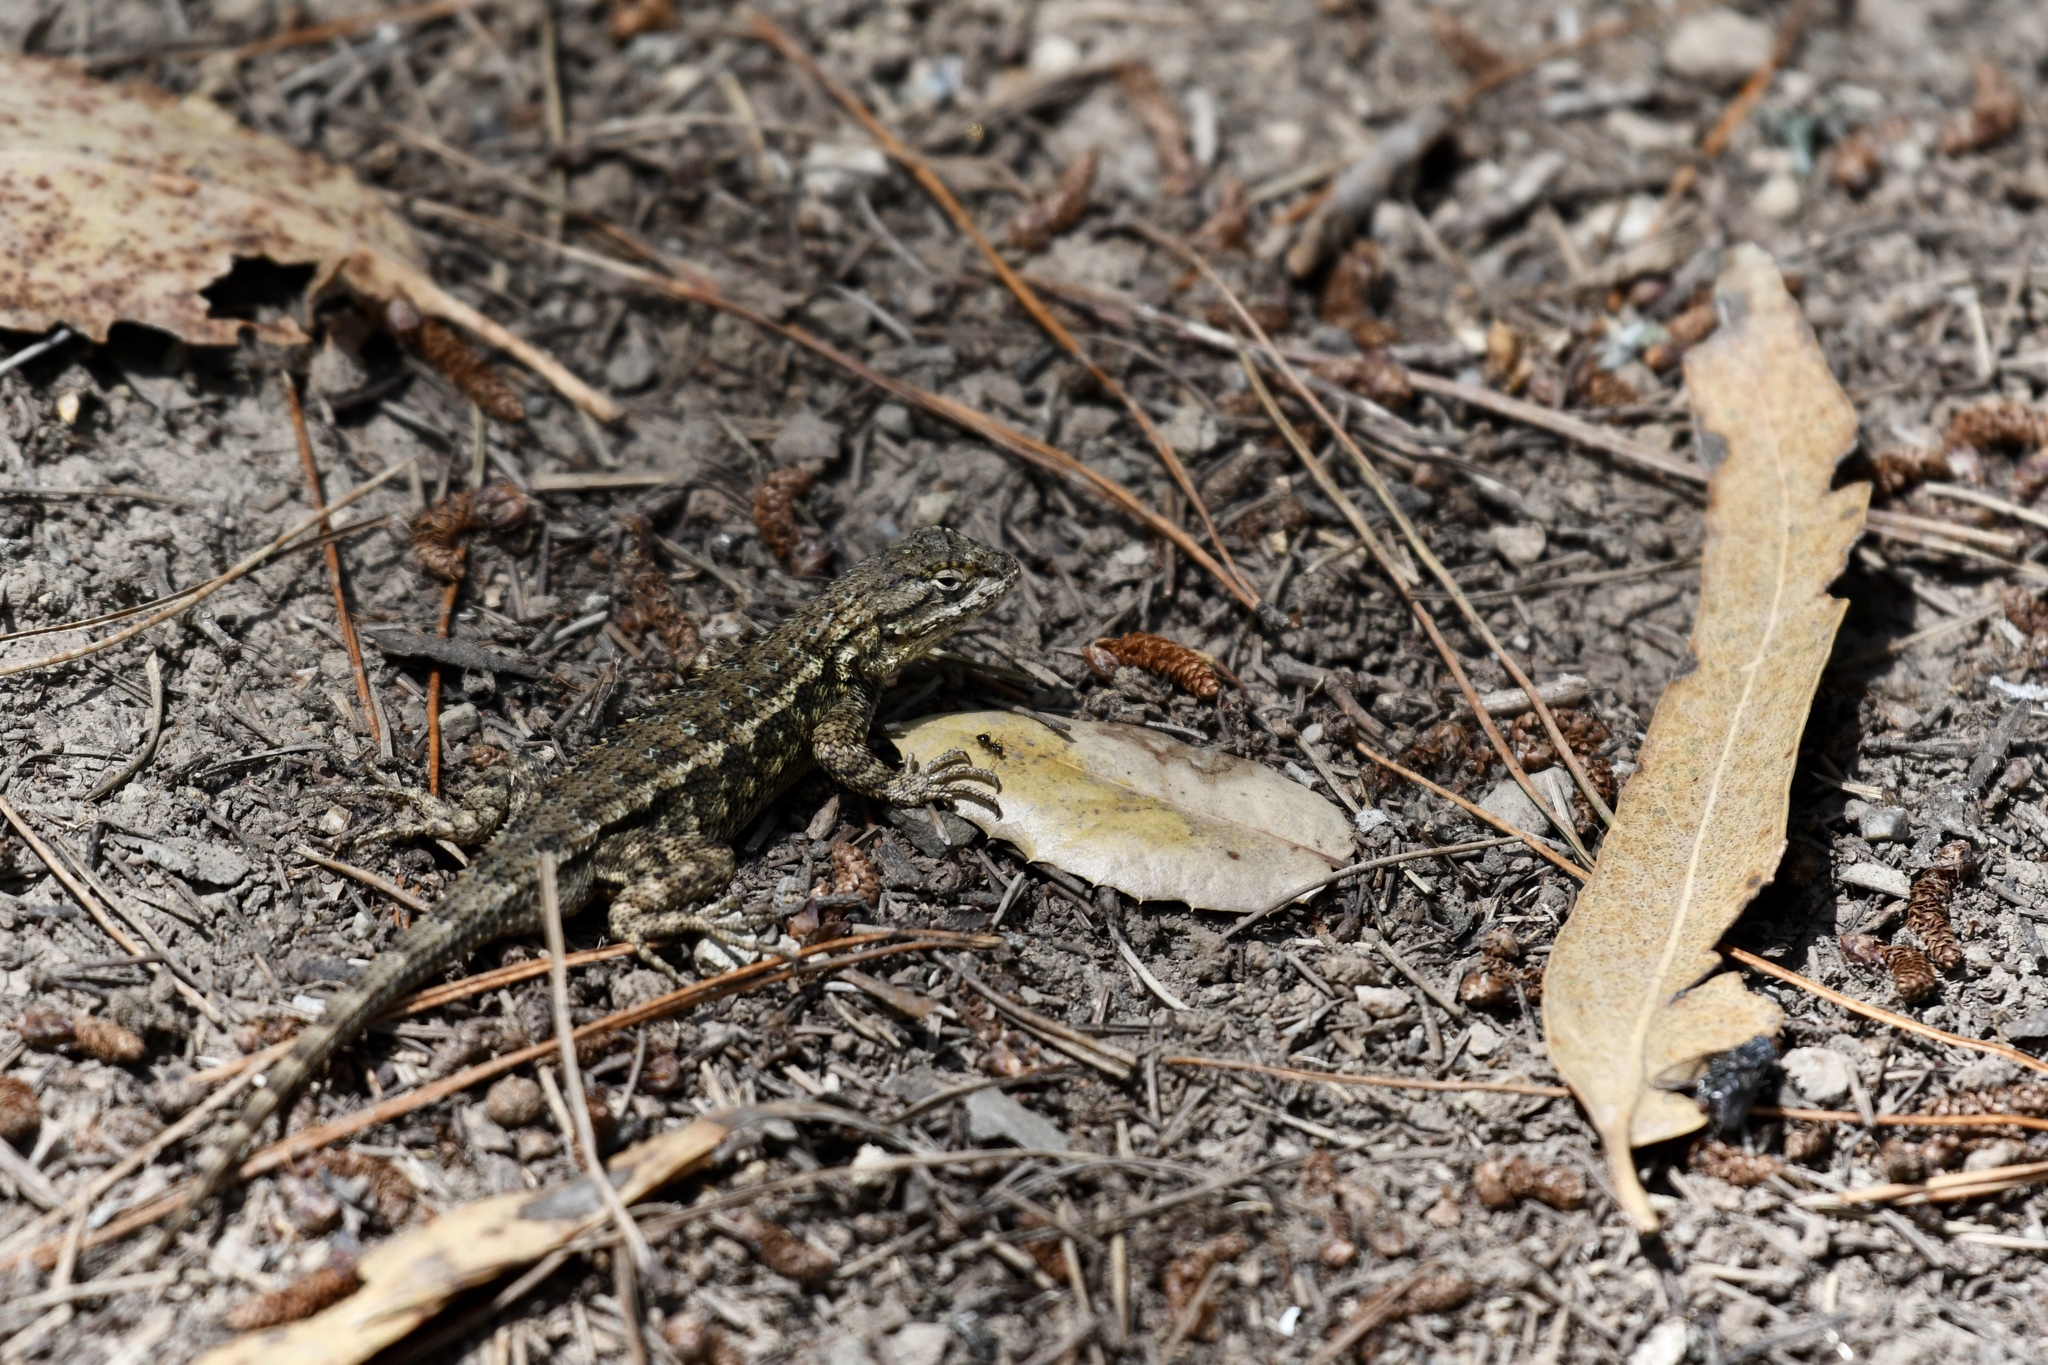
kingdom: Animalia
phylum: Chordata
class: Squamata
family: Phrynosomatidae
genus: Sceloporus
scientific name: Sceloporus occidentalis
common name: Western fence lizard
